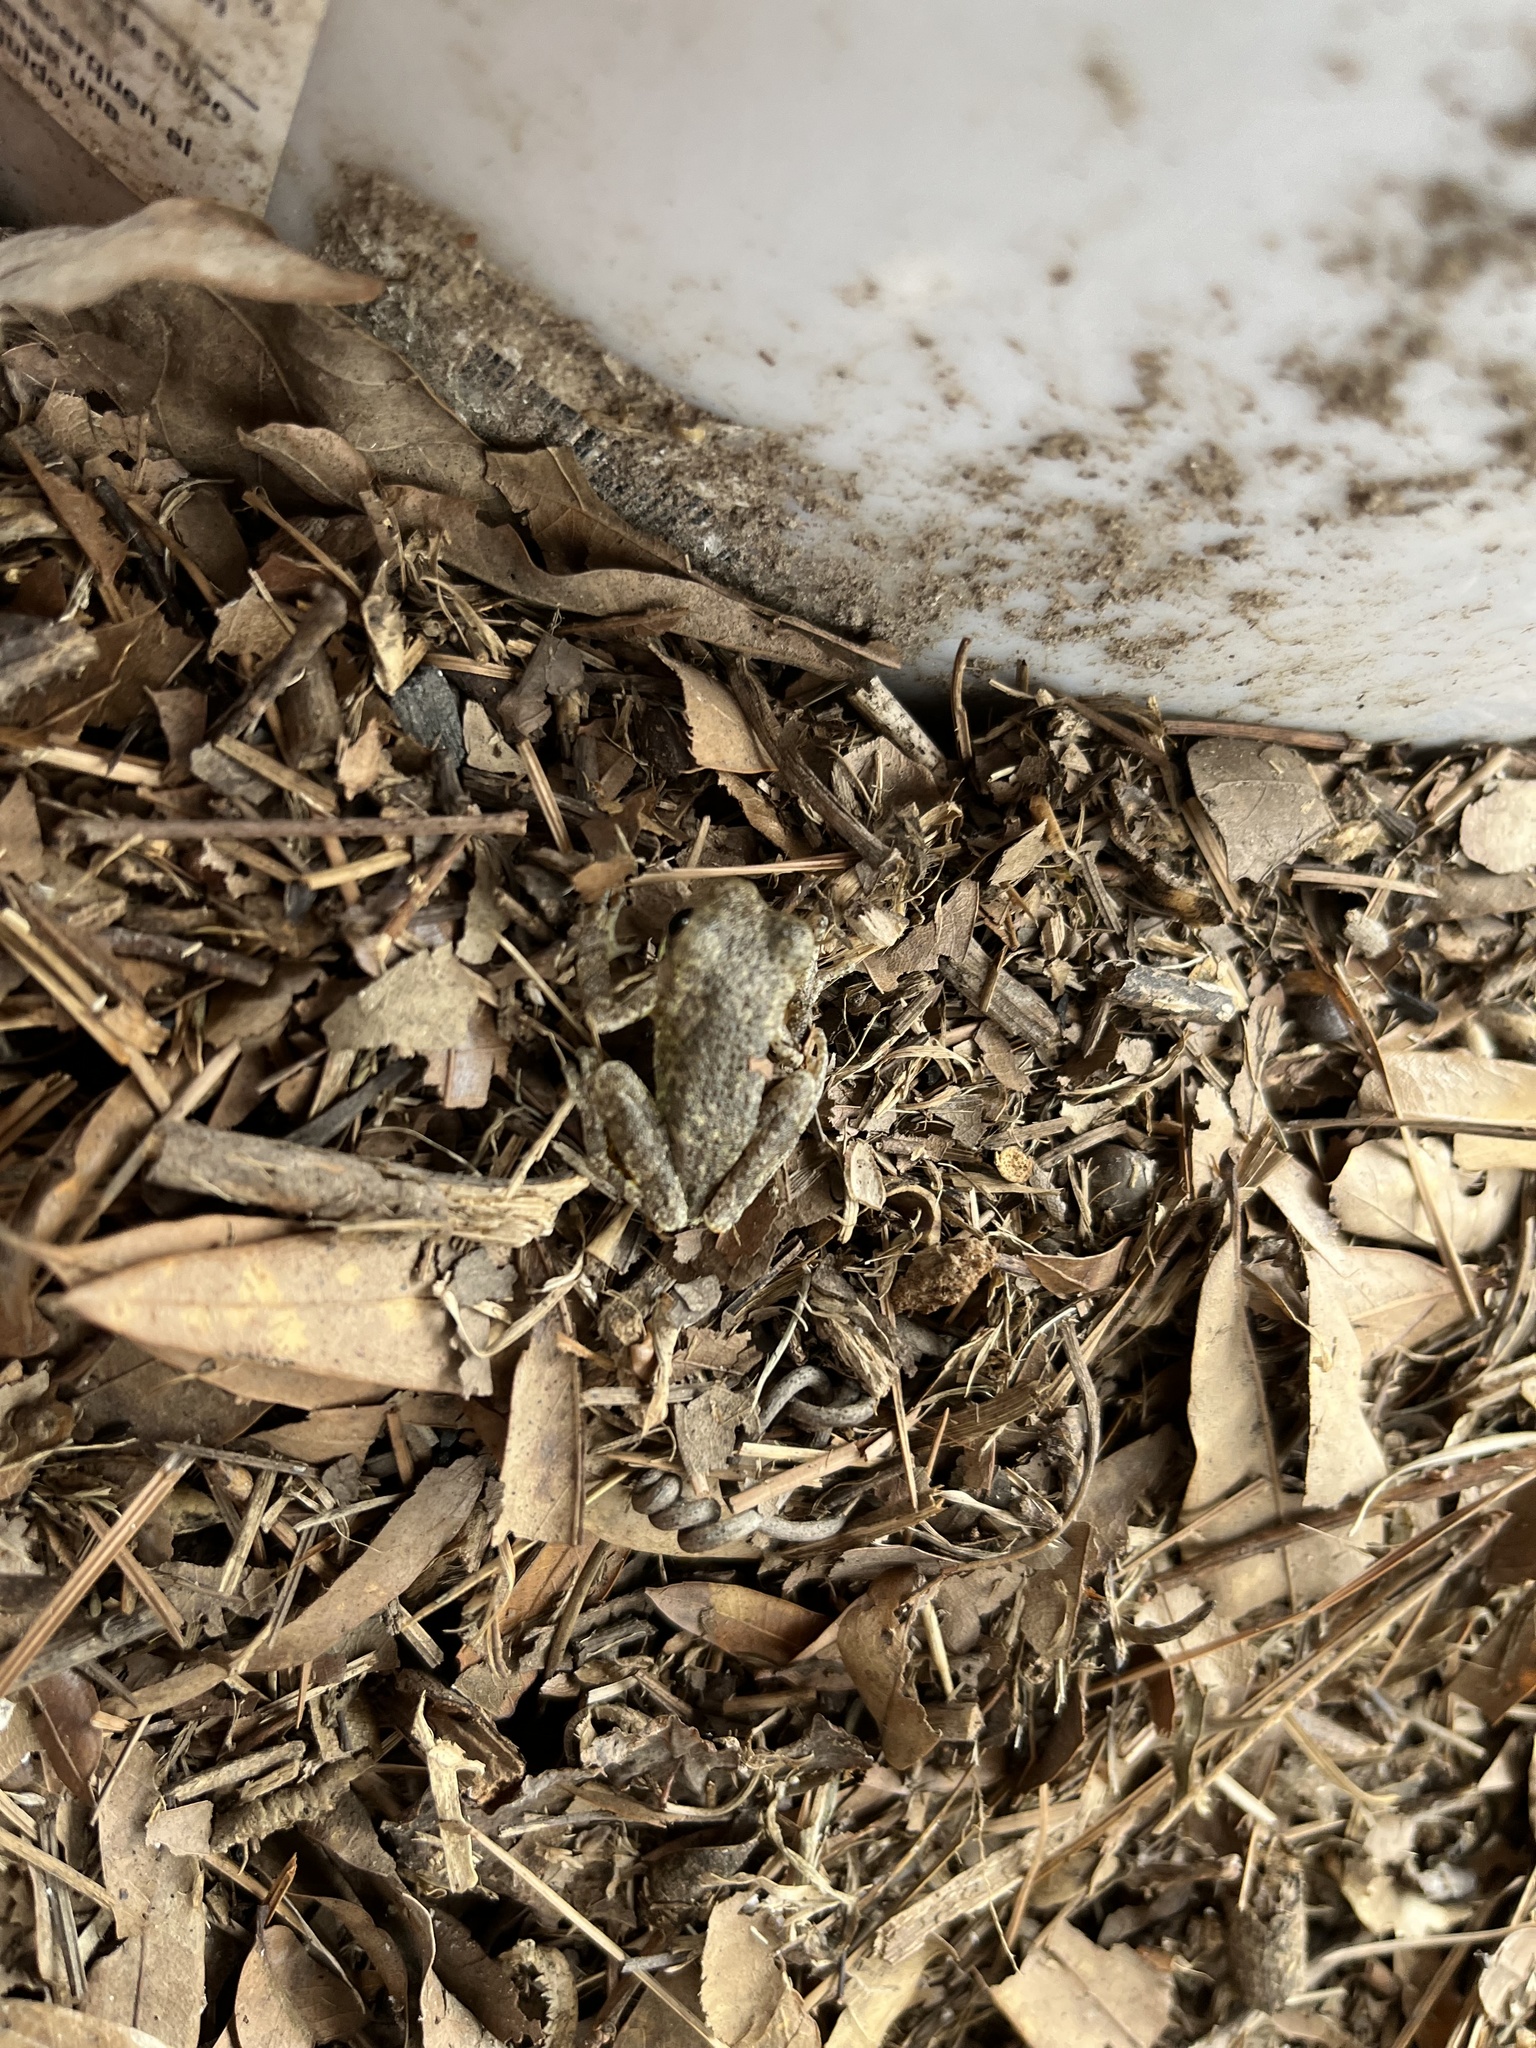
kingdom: Animalia
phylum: Chordata
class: Amphibia
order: Anura
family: Hylidae
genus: Acris
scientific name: Acris blanchardi
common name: Blanchard's cricket frog
